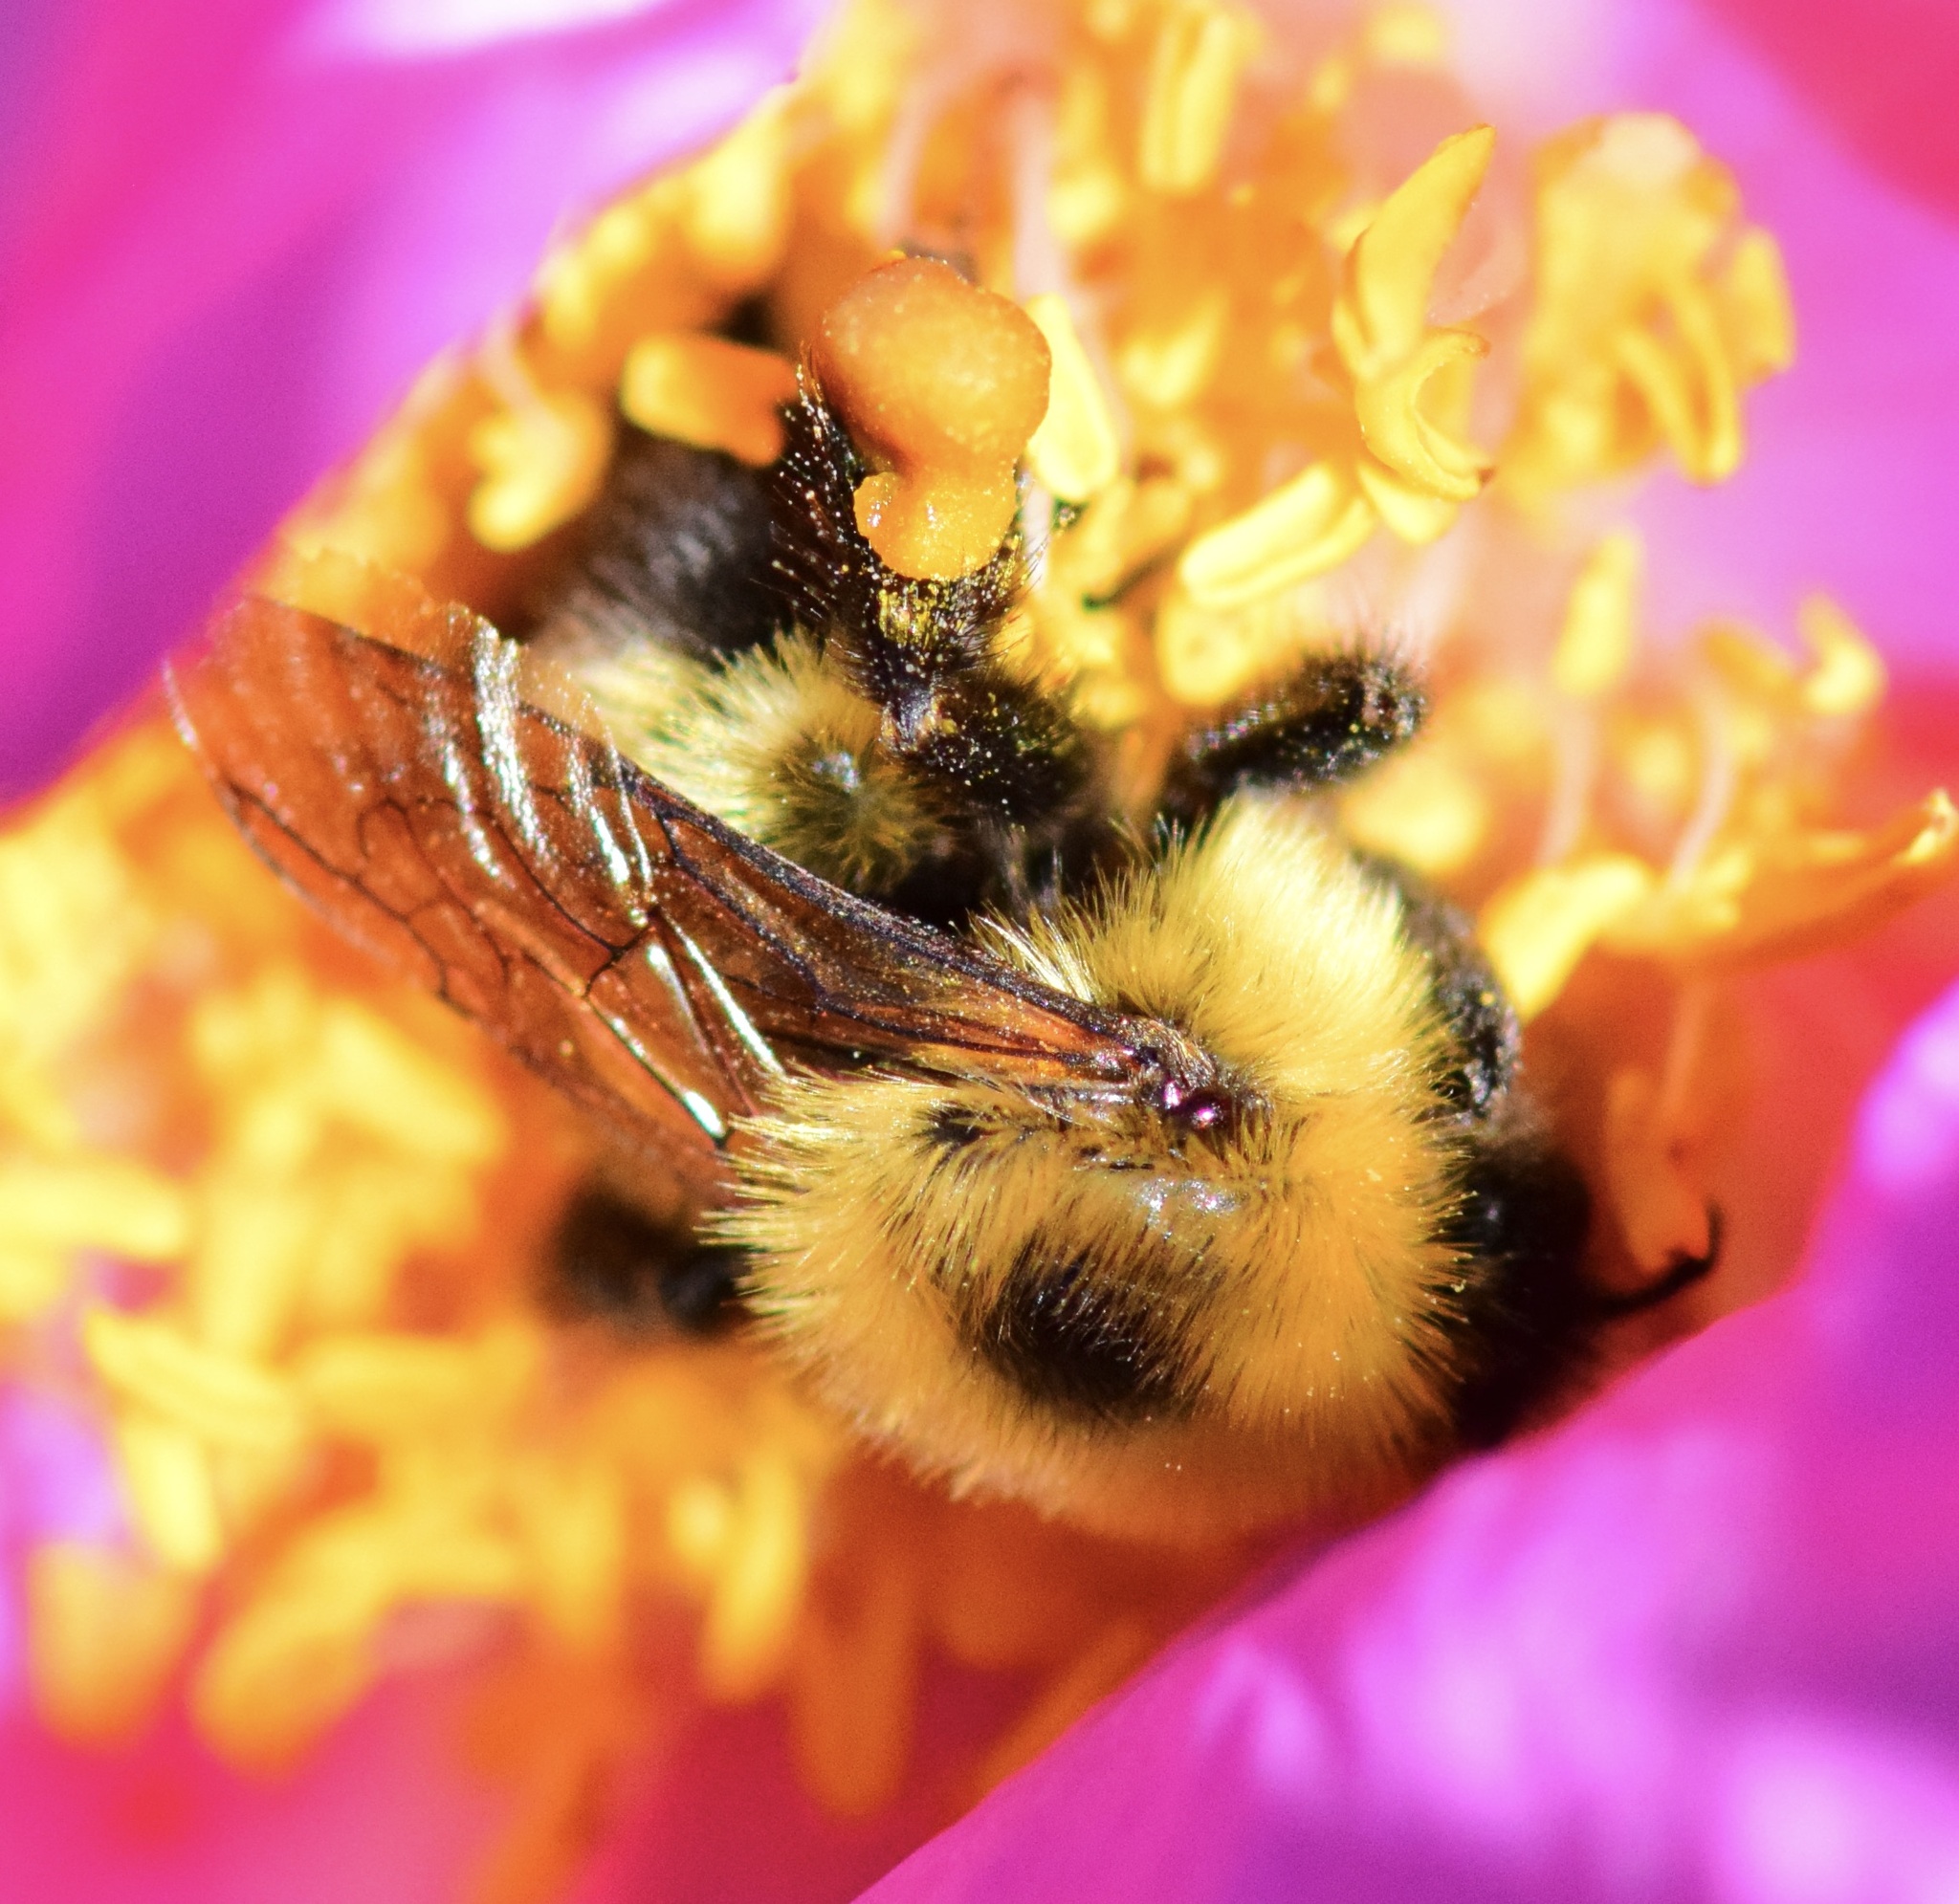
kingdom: Animalia
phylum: Arthropoda
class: Insecta
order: Hymenoptera
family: Apidae
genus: Bombus
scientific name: Bombus bimaculatus
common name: Two-spotted bumble bee
